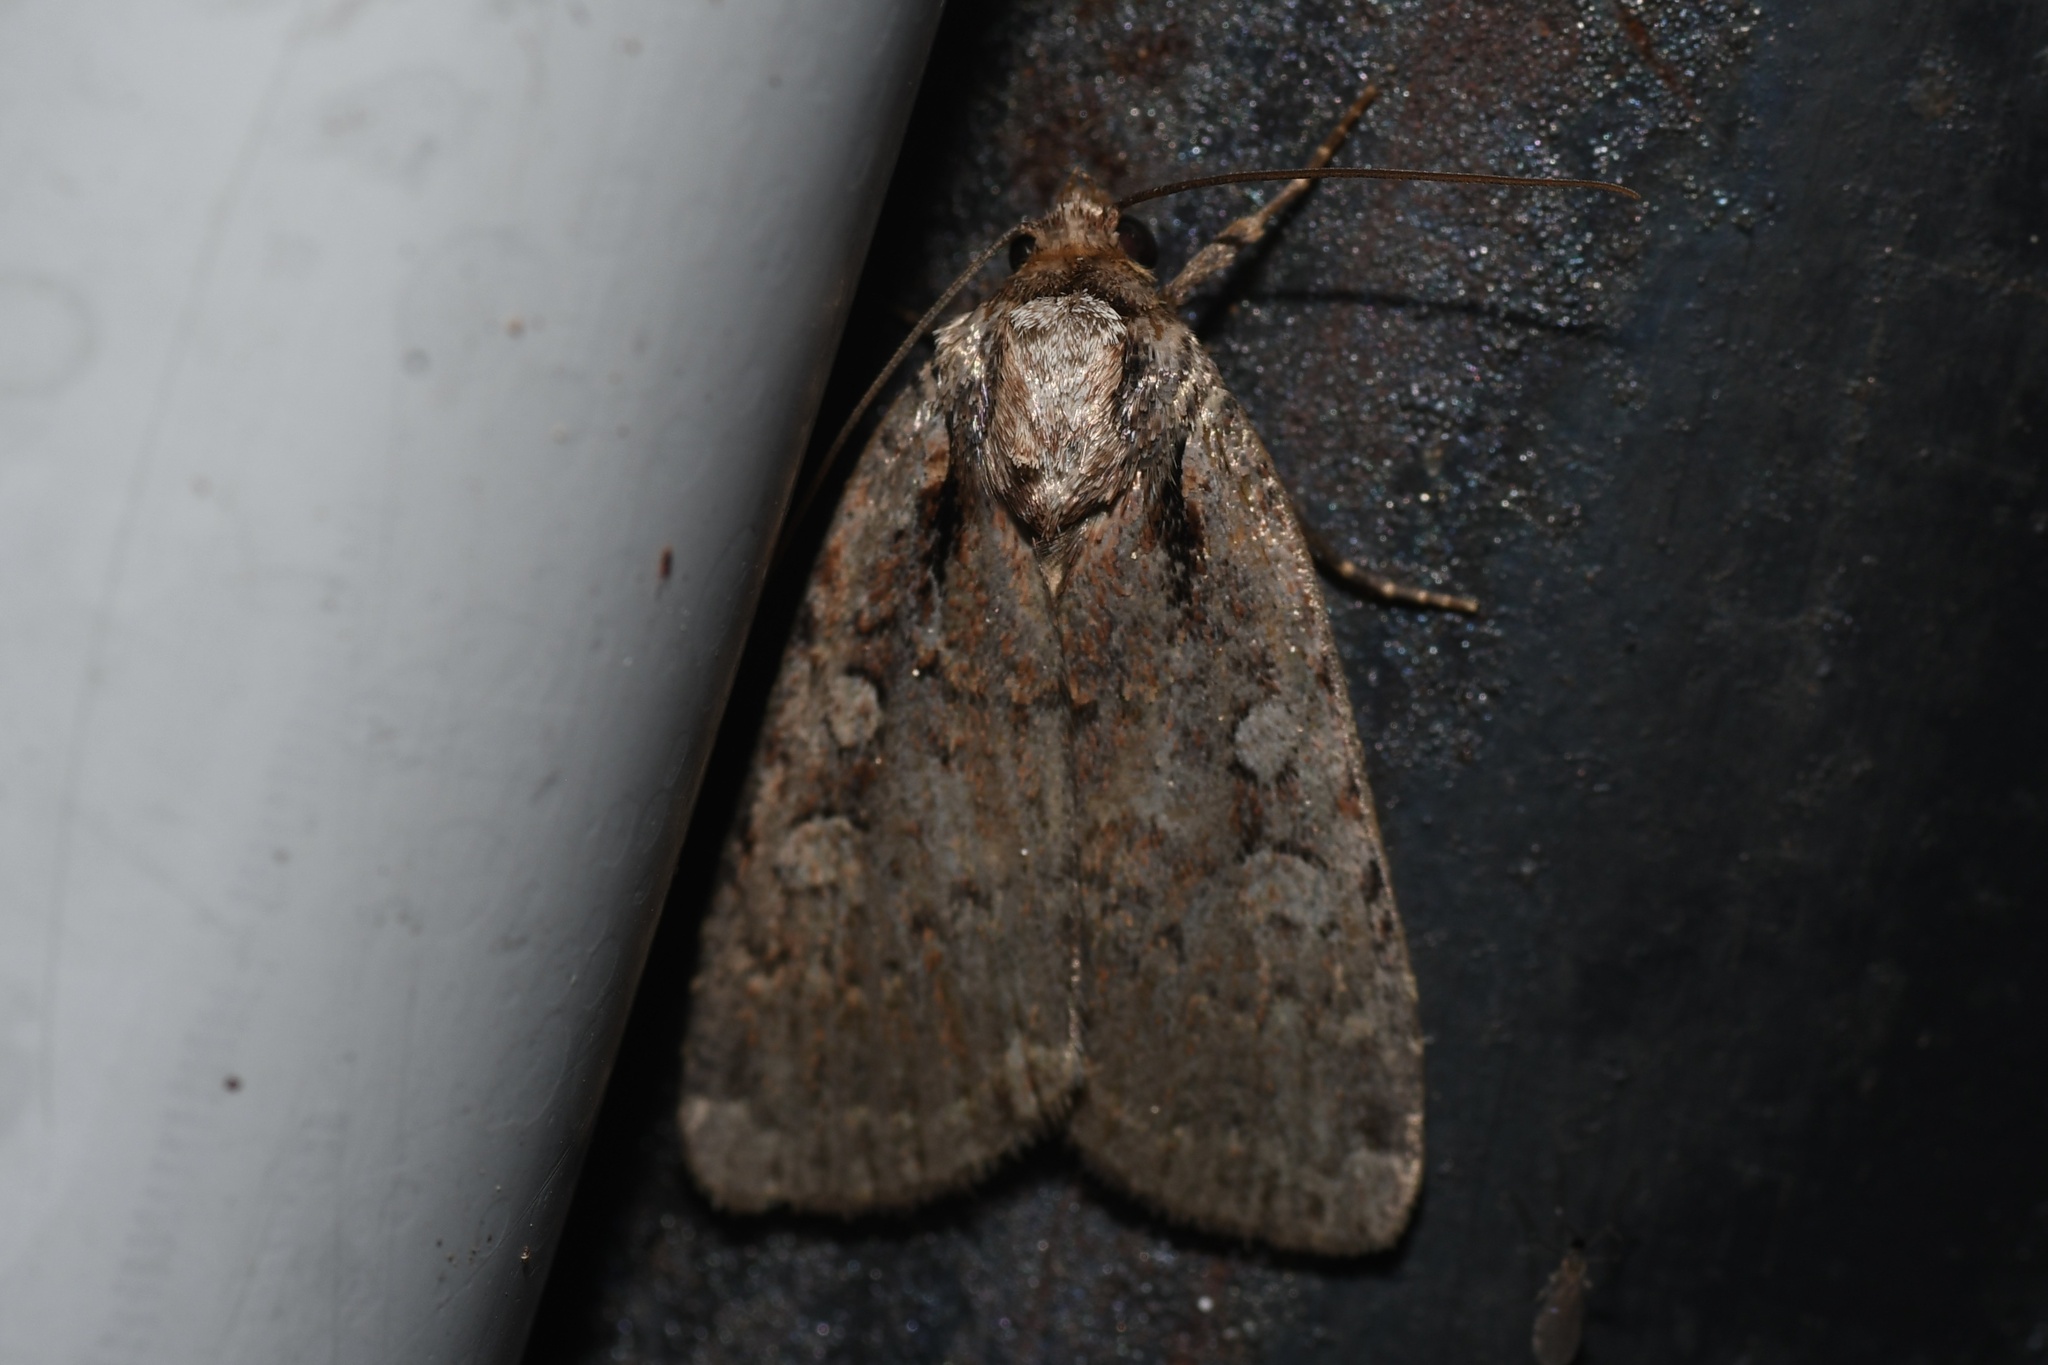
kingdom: Animalia
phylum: Arthropoda
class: Insecta
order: Lepidoptera
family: Noctuidae
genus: Eueretagrotis
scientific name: Eueretagrotis attentus
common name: Attentive dart
